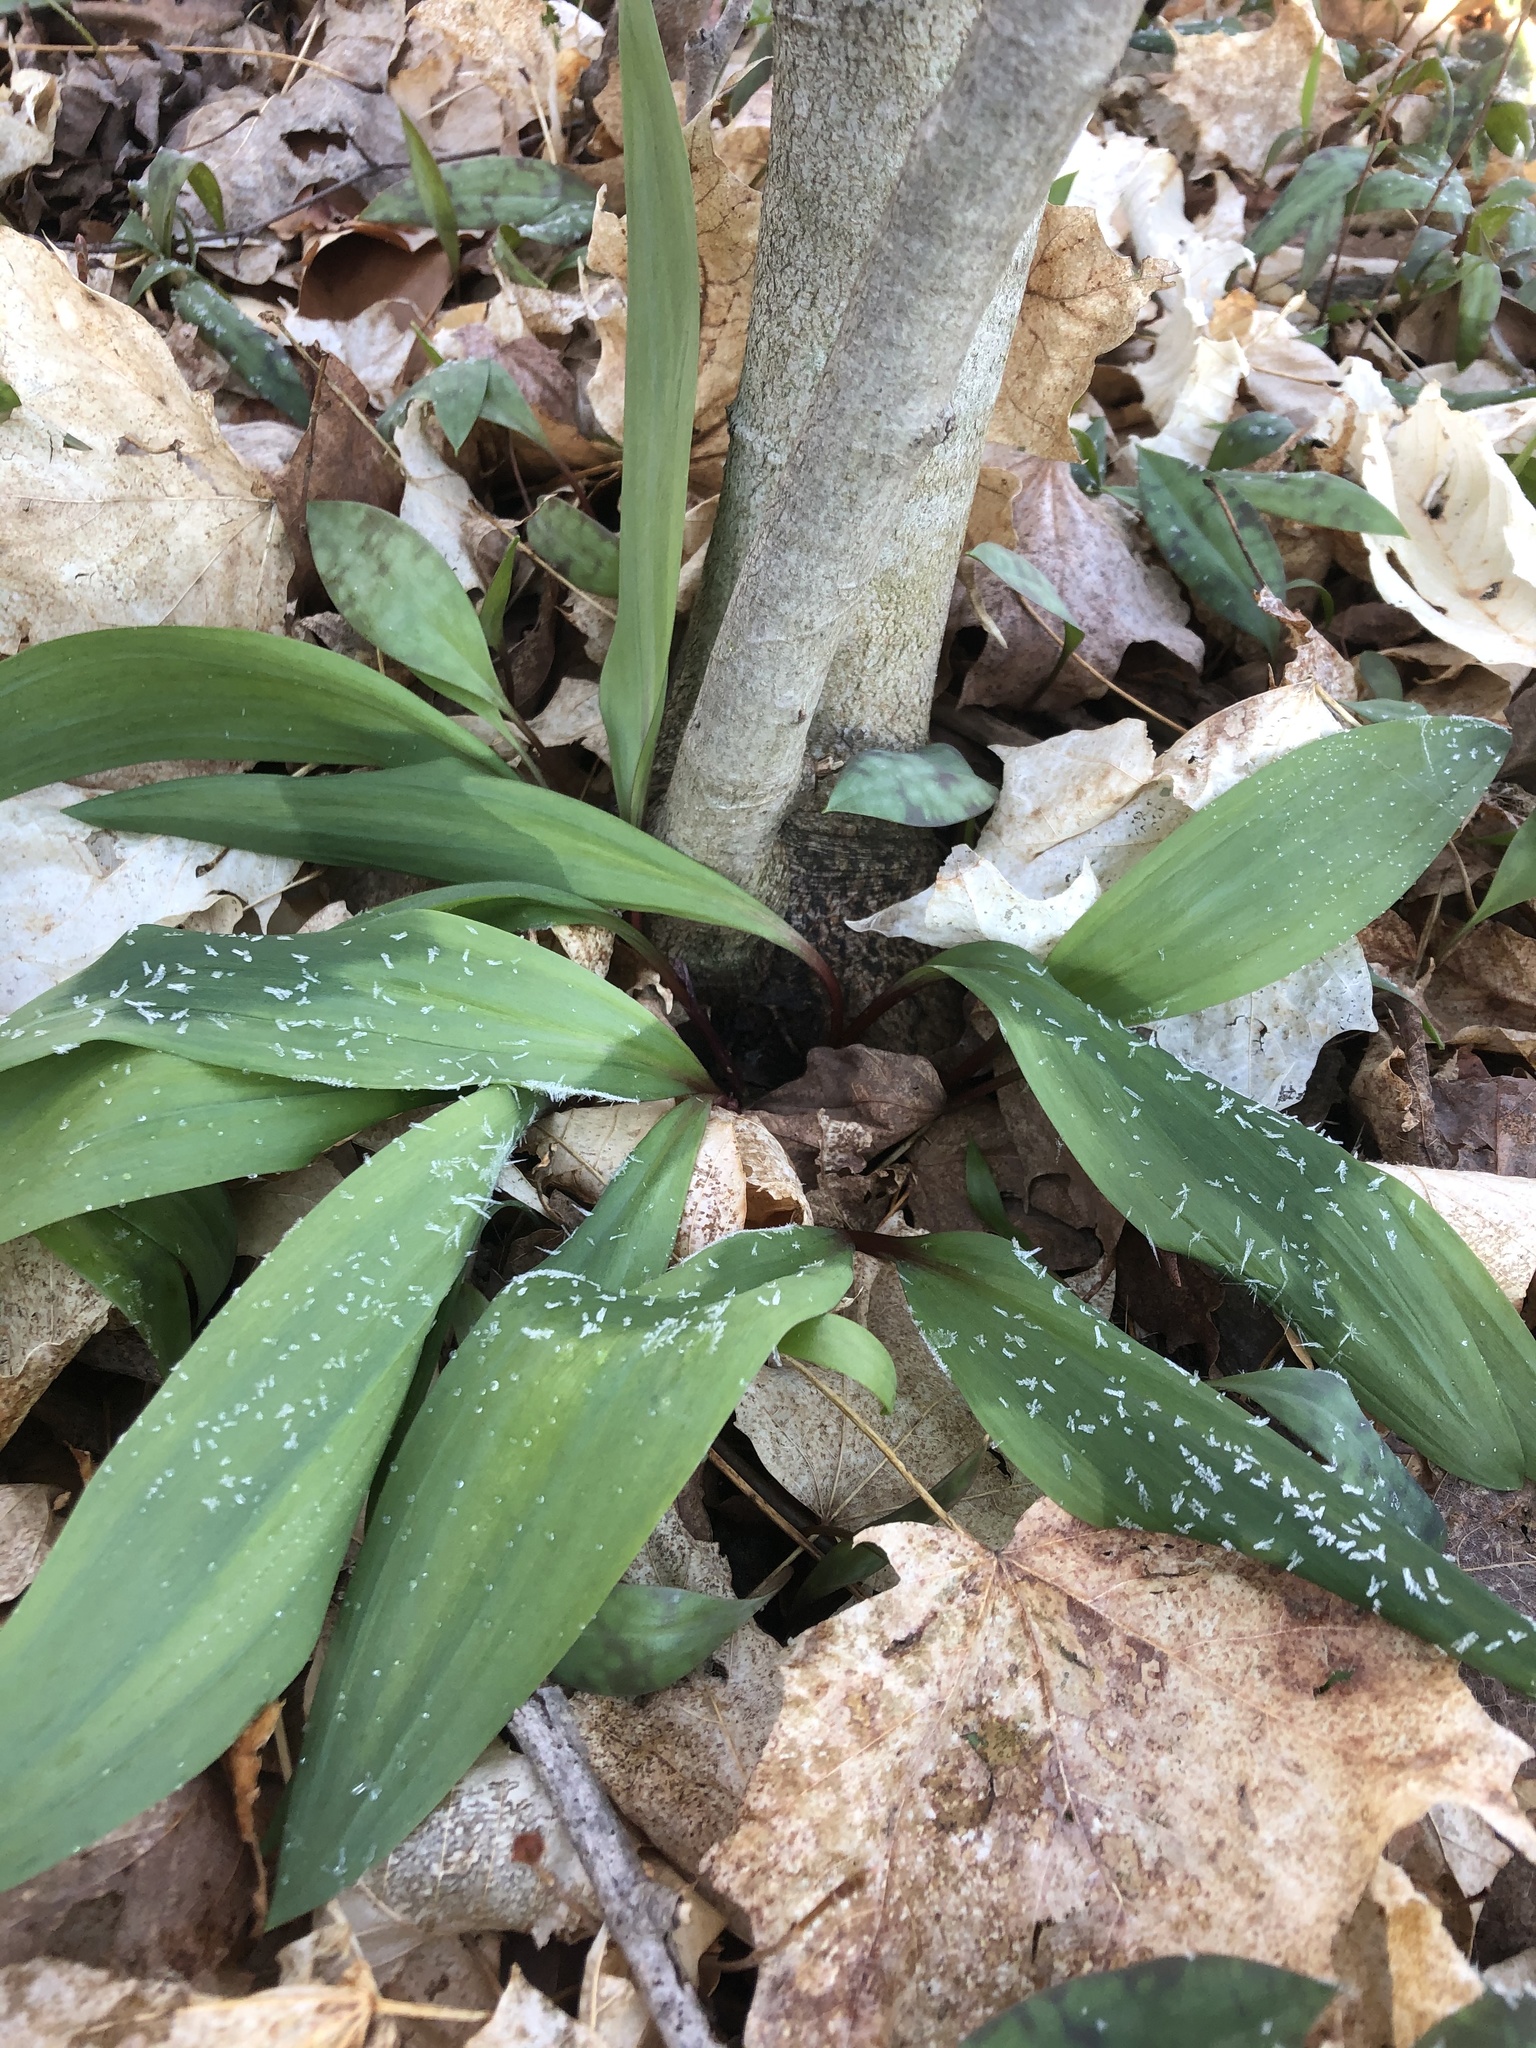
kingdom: Plantae
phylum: Tracheophyta
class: Liliopsida
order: Asparagales
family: Amaryllidaceae
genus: Allium
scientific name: Allium tricoccum
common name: Ramp
